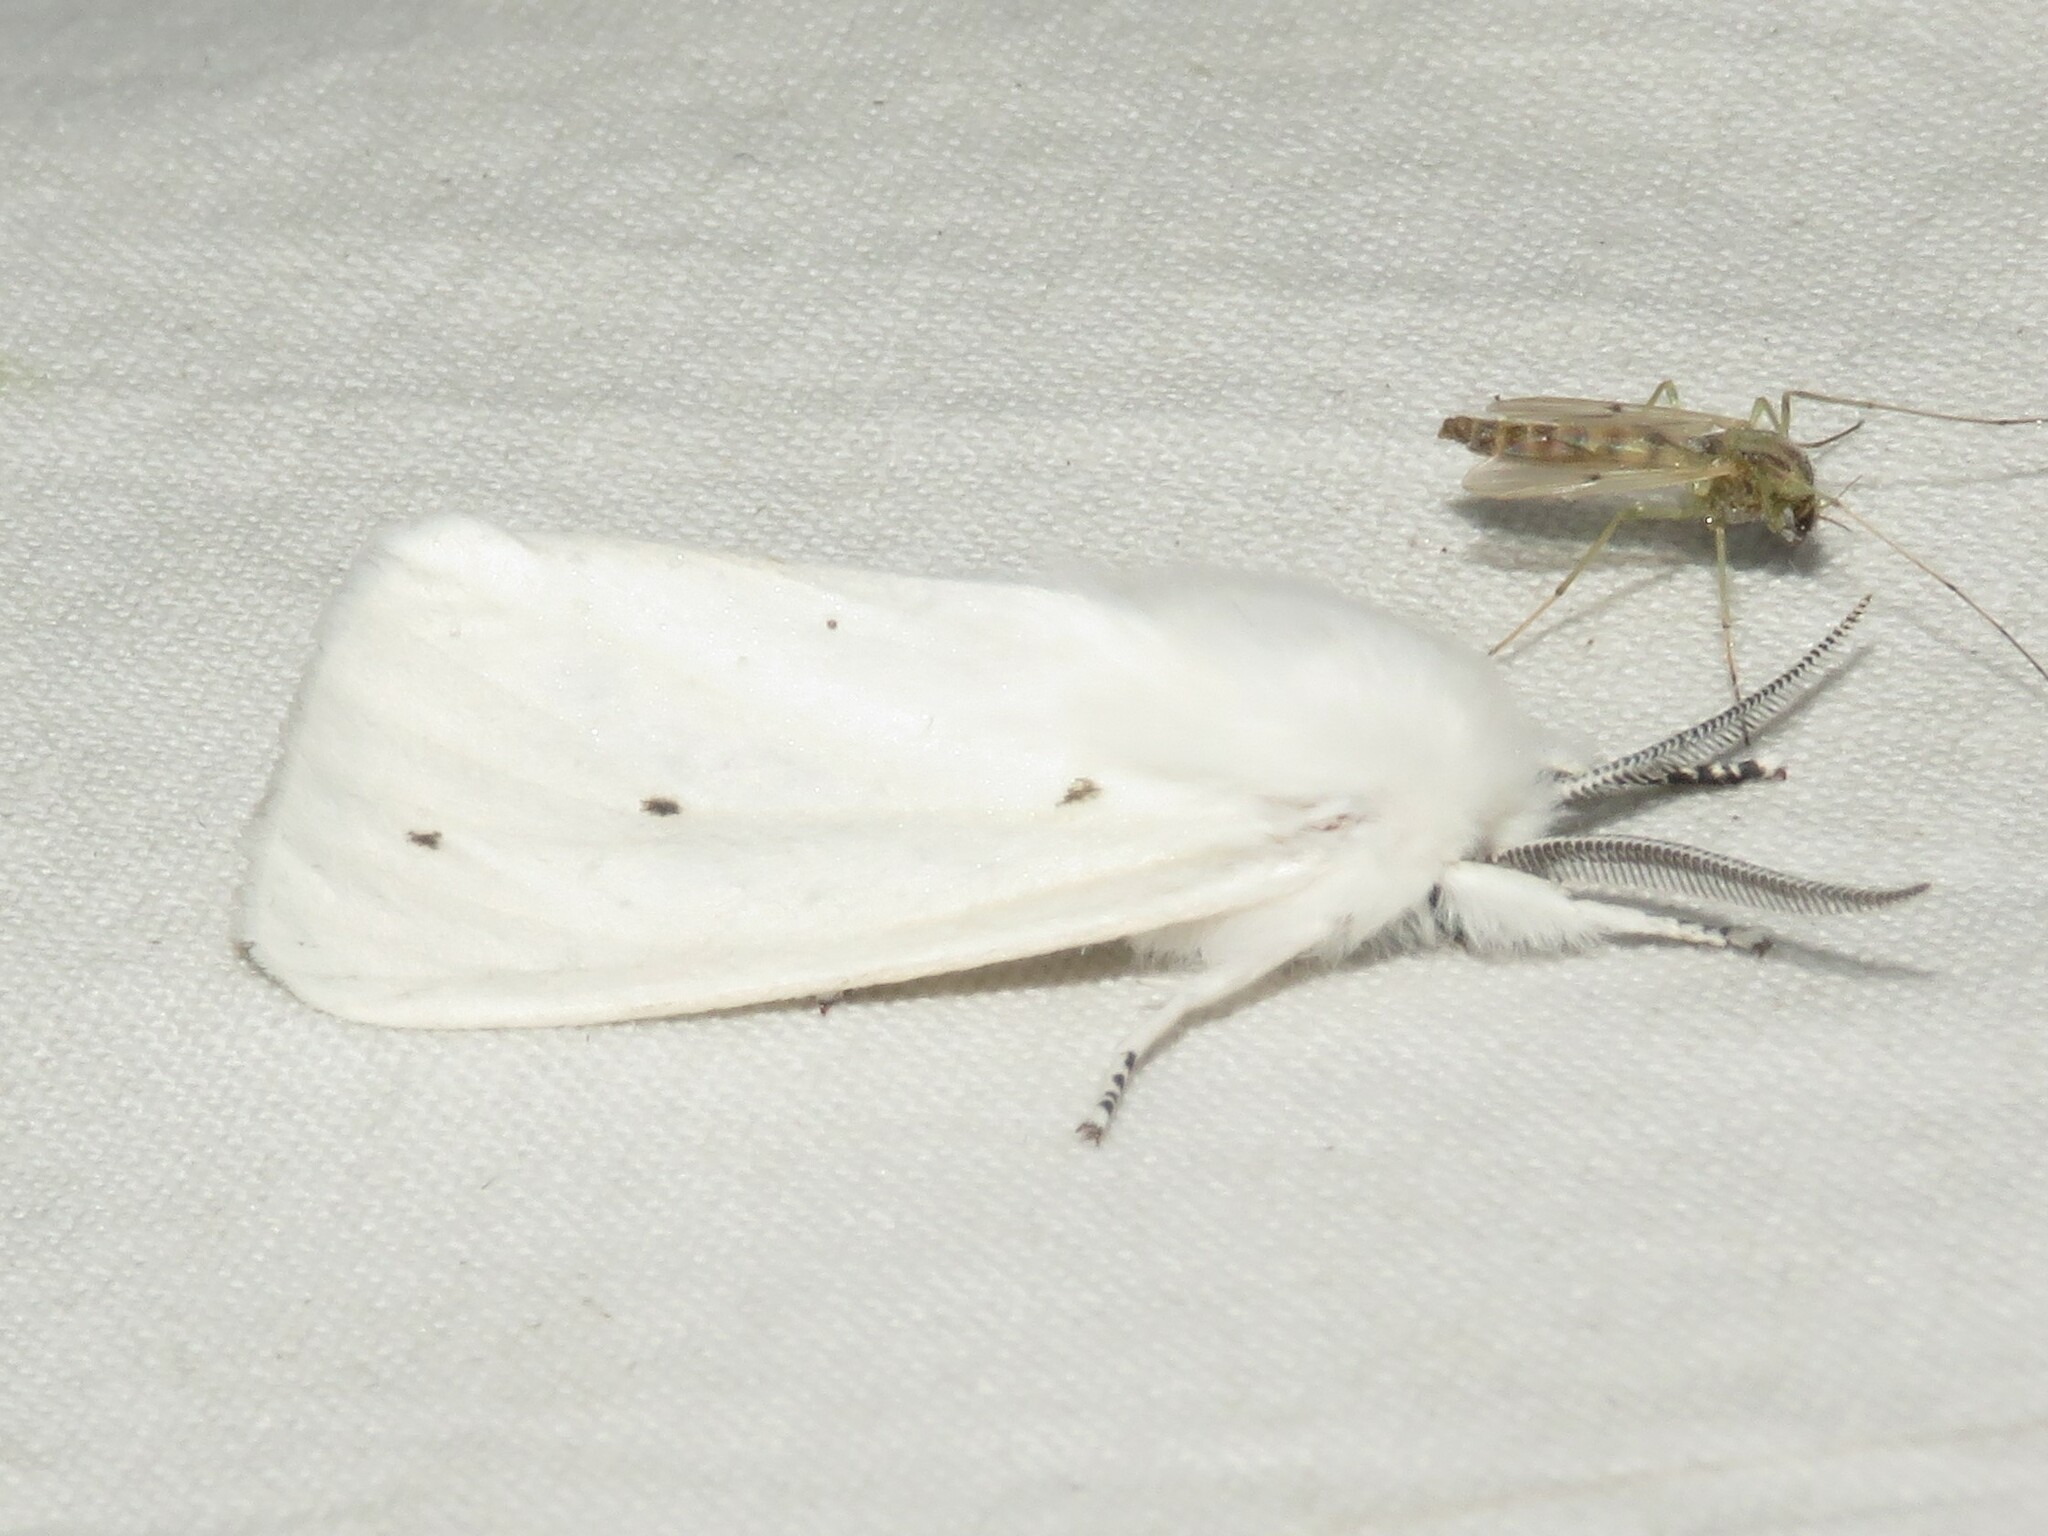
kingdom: Animalia
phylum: Arthropoda
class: Insecta
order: Lepidoptera
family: Erebidae
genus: Spilosoma
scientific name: Spilosoma virginica
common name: Virginia tiger moth
